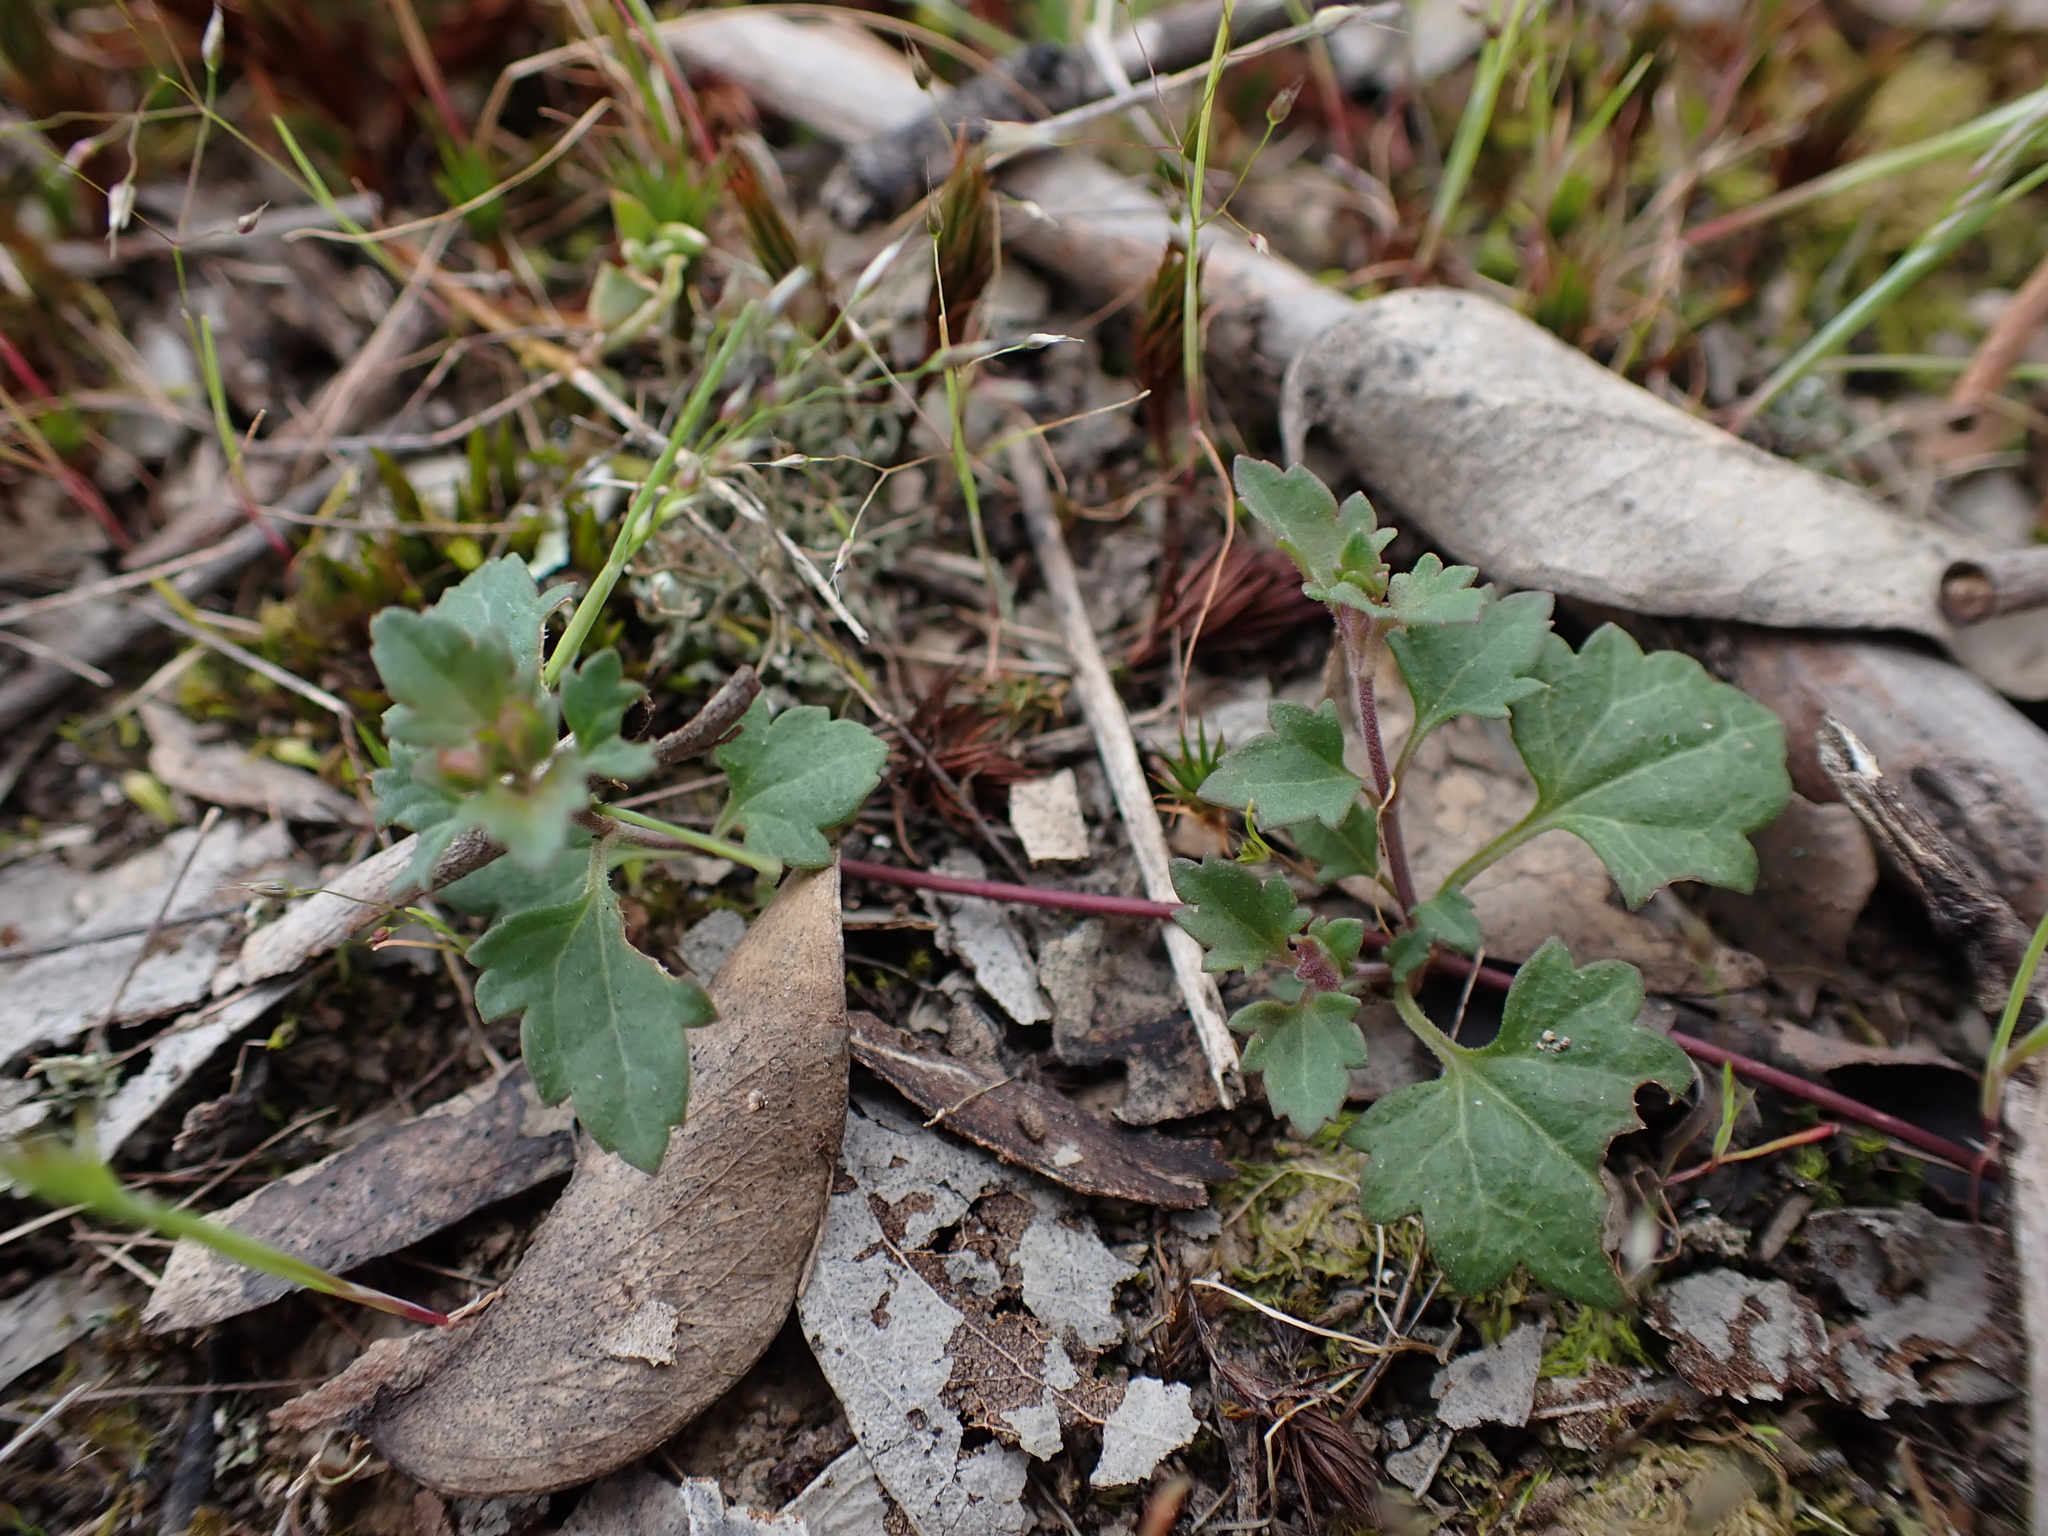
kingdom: Plantae
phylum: Tracheophyta
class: Magnoliopsida
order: Lamiales
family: Plantaginaceae
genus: Veronica
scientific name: Veronica plebeia
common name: Speedwell
